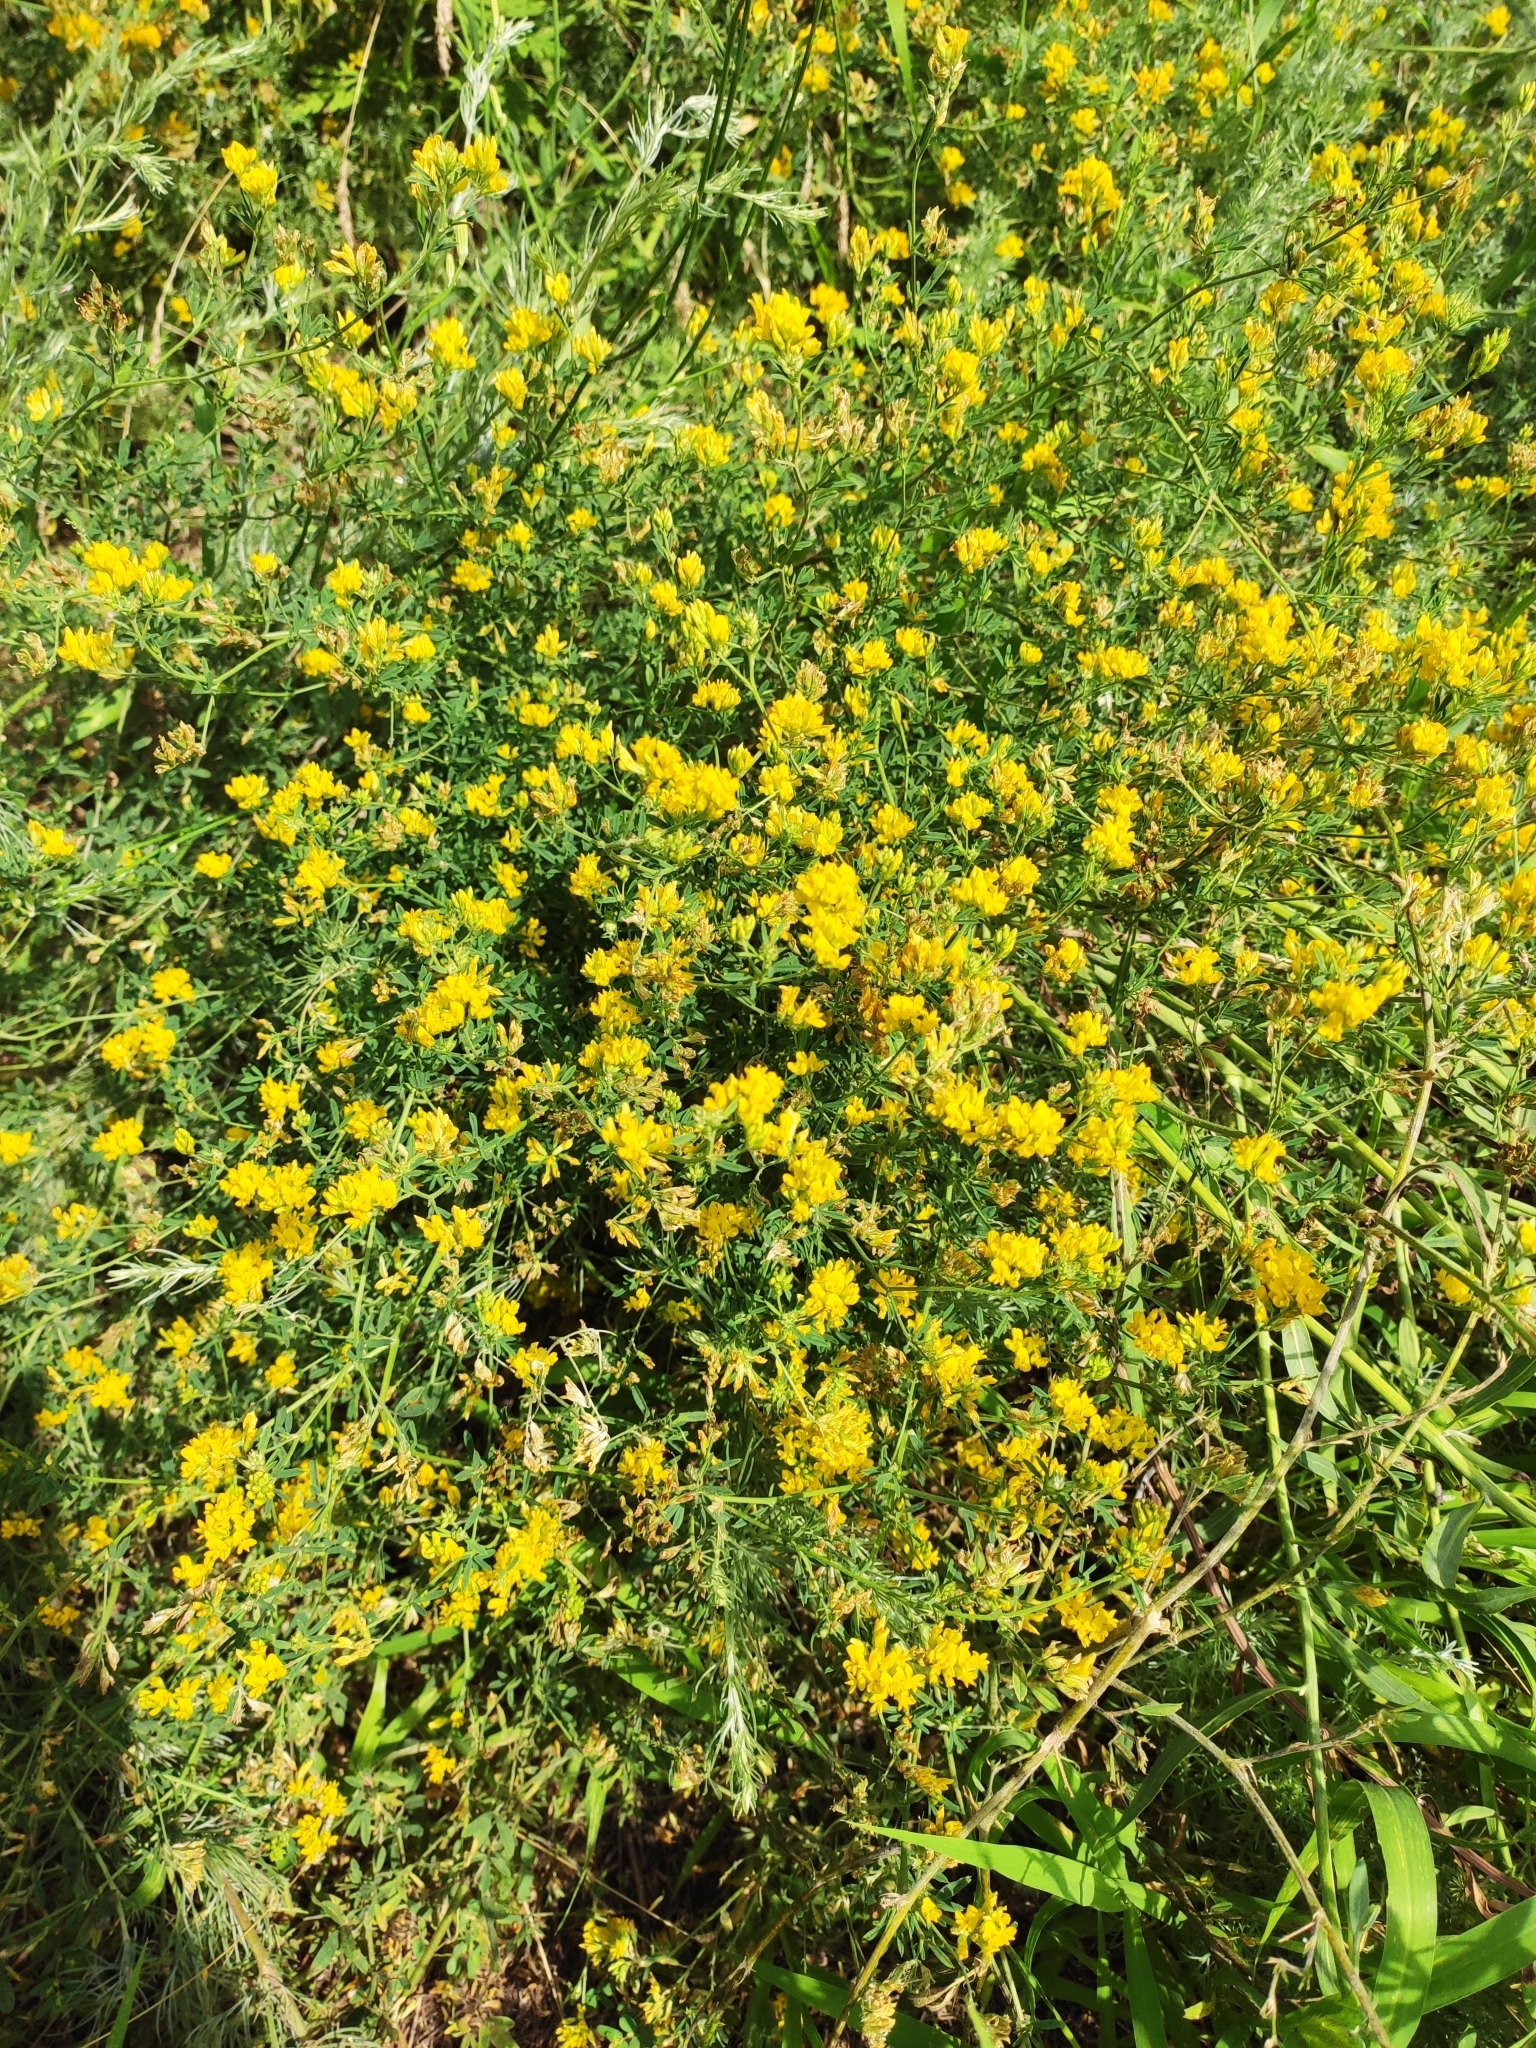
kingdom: Plantae
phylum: Tracheophyta
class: Magnoliopsida
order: Fabales
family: Fabaceae
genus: Medicago
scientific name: Medicago falcata
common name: Sickle medick
